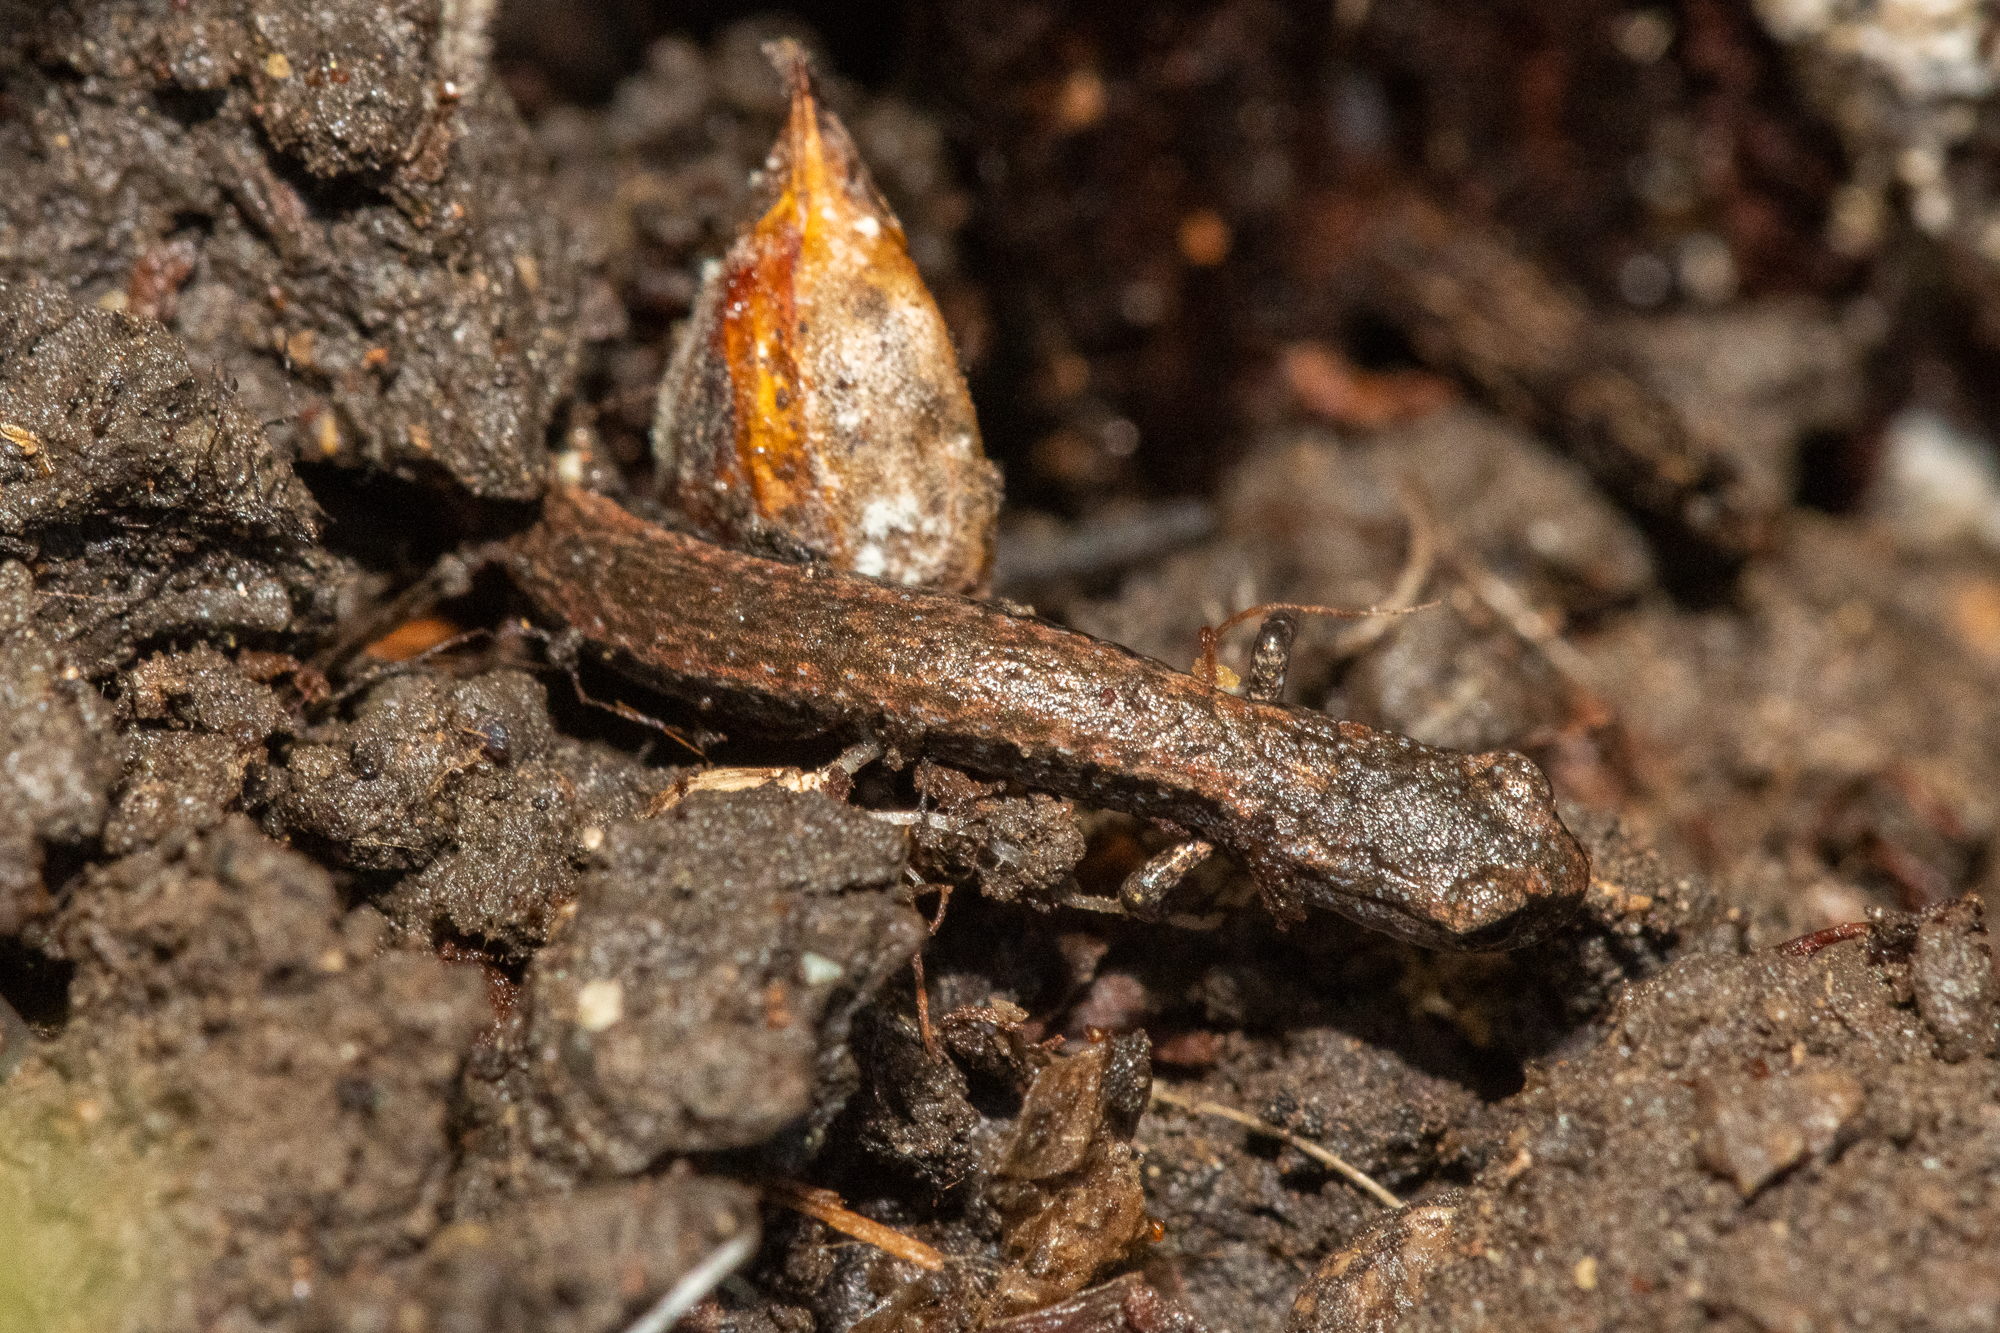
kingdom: Animalia
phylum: Chordata
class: Amphibia
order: Caudata
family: Plethodontidae
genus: Batrachoseps
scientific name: Batrachoseps attenuatus
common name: California slender salamander
